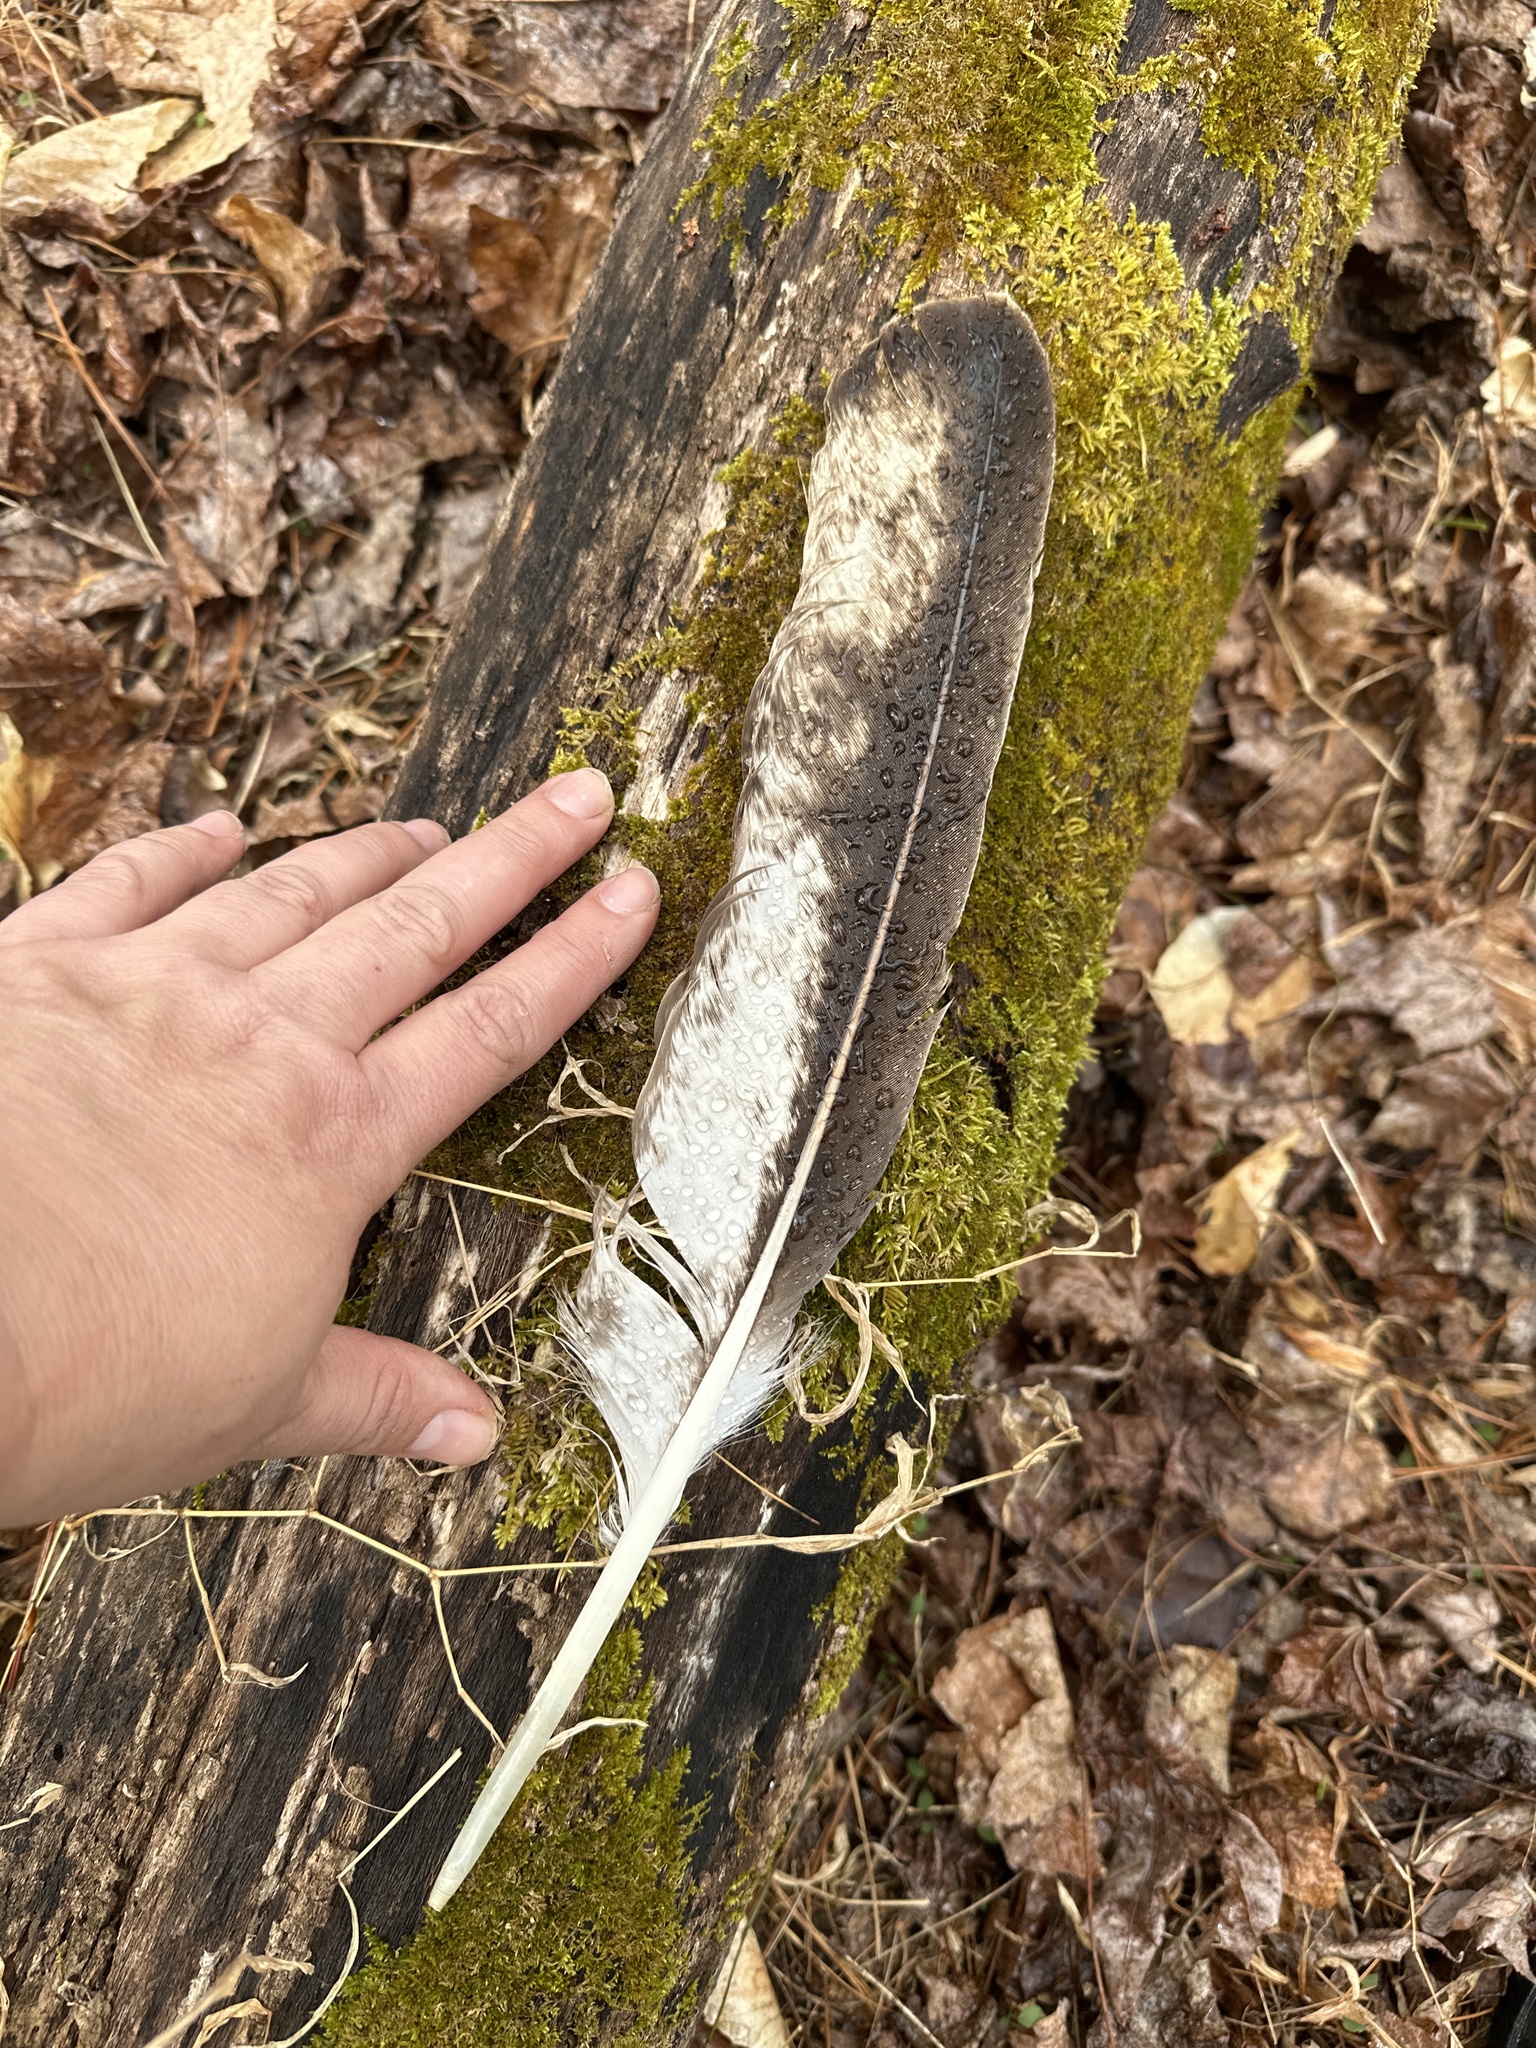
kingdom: Animalia
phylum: Chordata
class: Aves
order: Accipitriformes
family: Accipitridae
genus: Haliaeetus
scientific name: Haliaeetus leucocephalus
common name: Bald eagle
